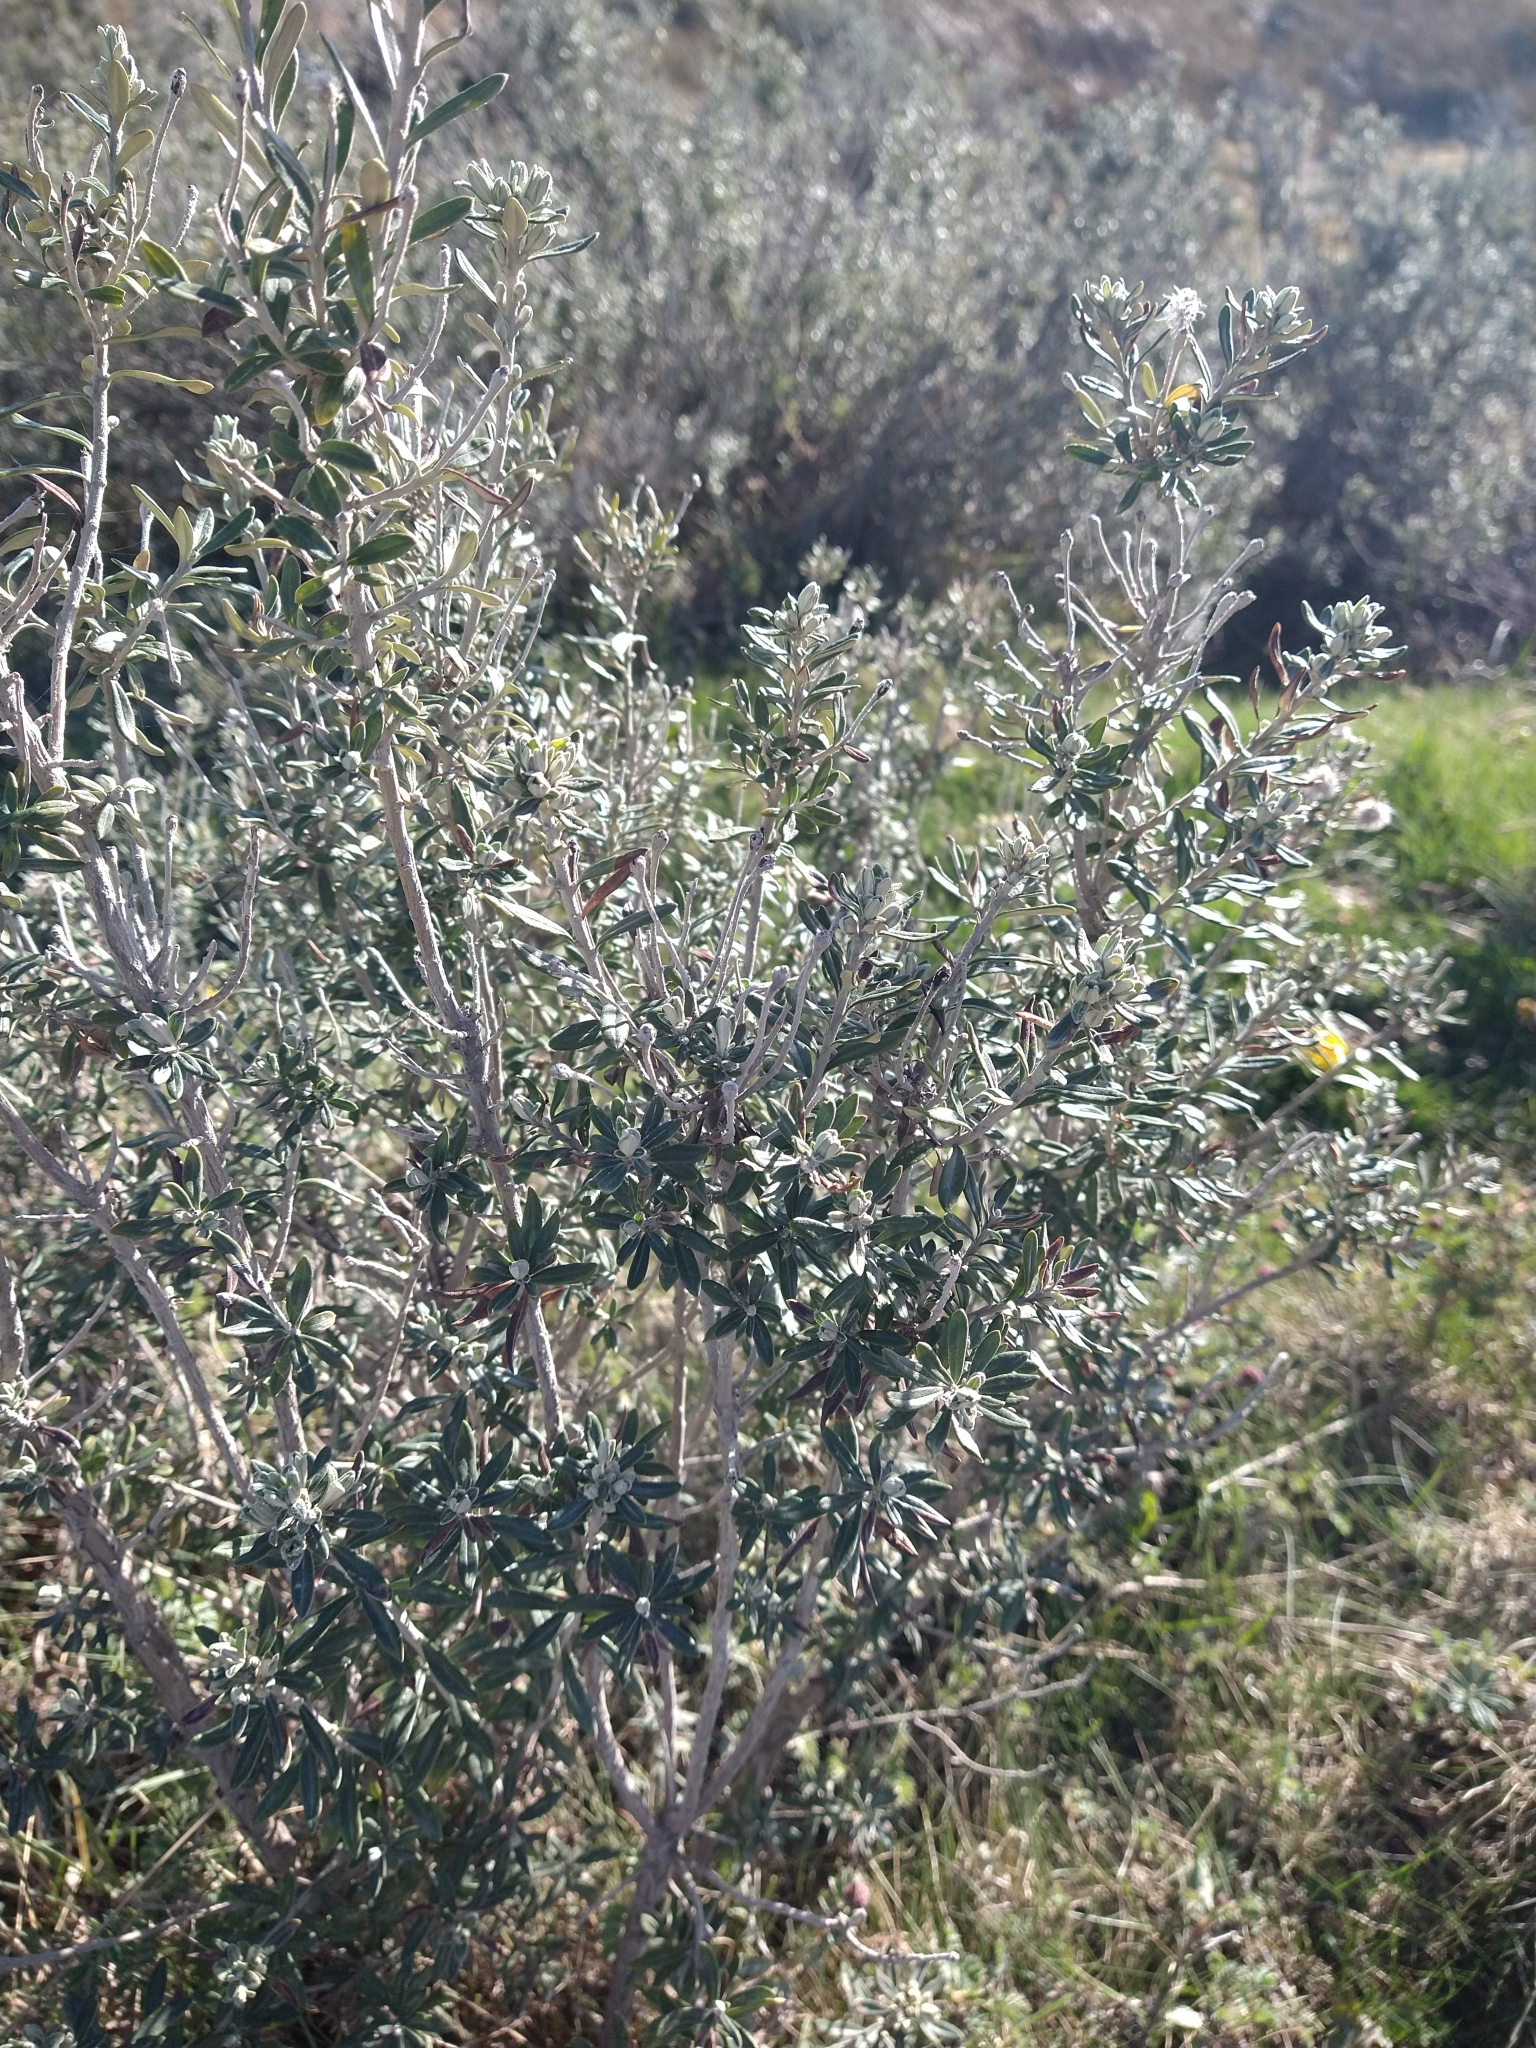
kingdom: Plantae
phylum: Tracheophyta
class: Magnoliopsida
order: Asterales
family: Asteraceae
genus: Chiliotrichum
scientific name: Chiliotrichum diffusum
